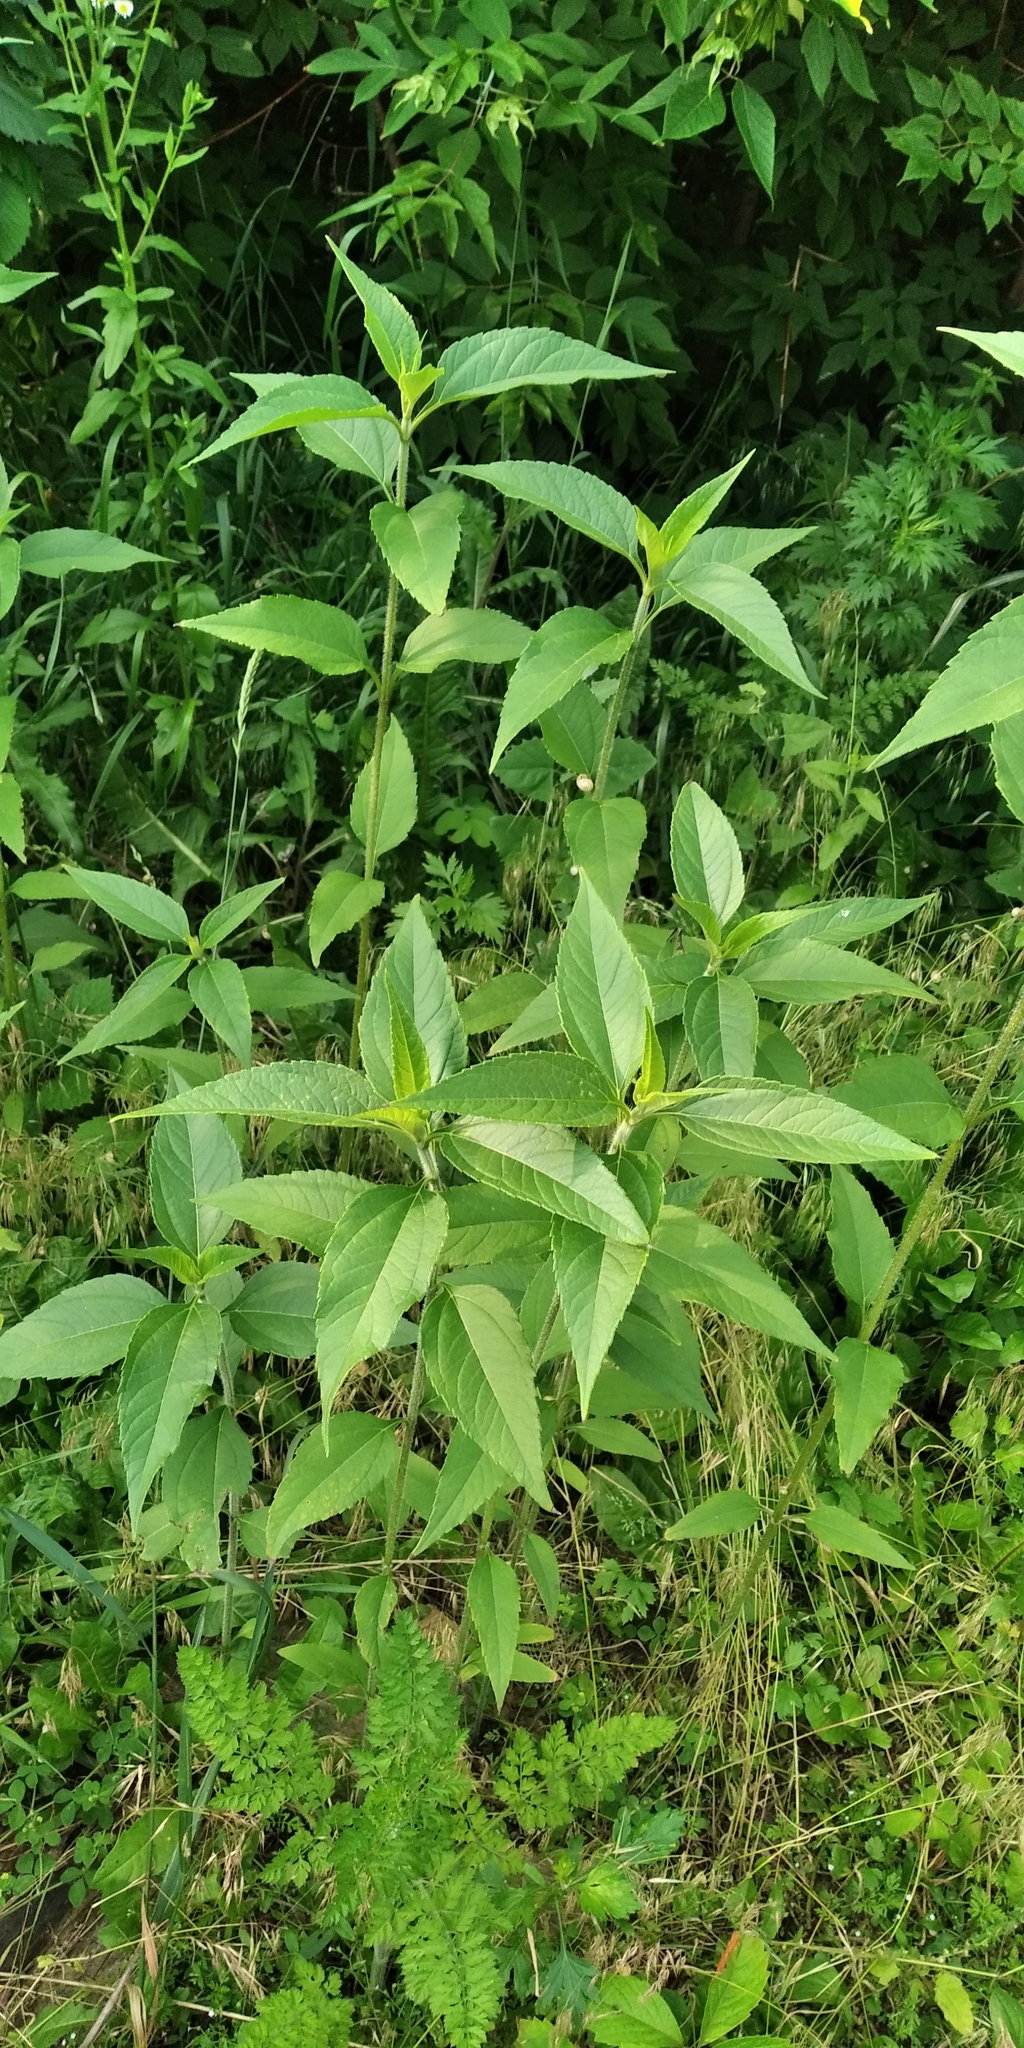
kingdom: Plantae
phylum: Tracheophyta
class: Magnoliopsida
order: Asterales
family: Asteraceae
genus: Helianthus
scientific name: Helianthus tuberosus
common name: Jerusalem artichoke
